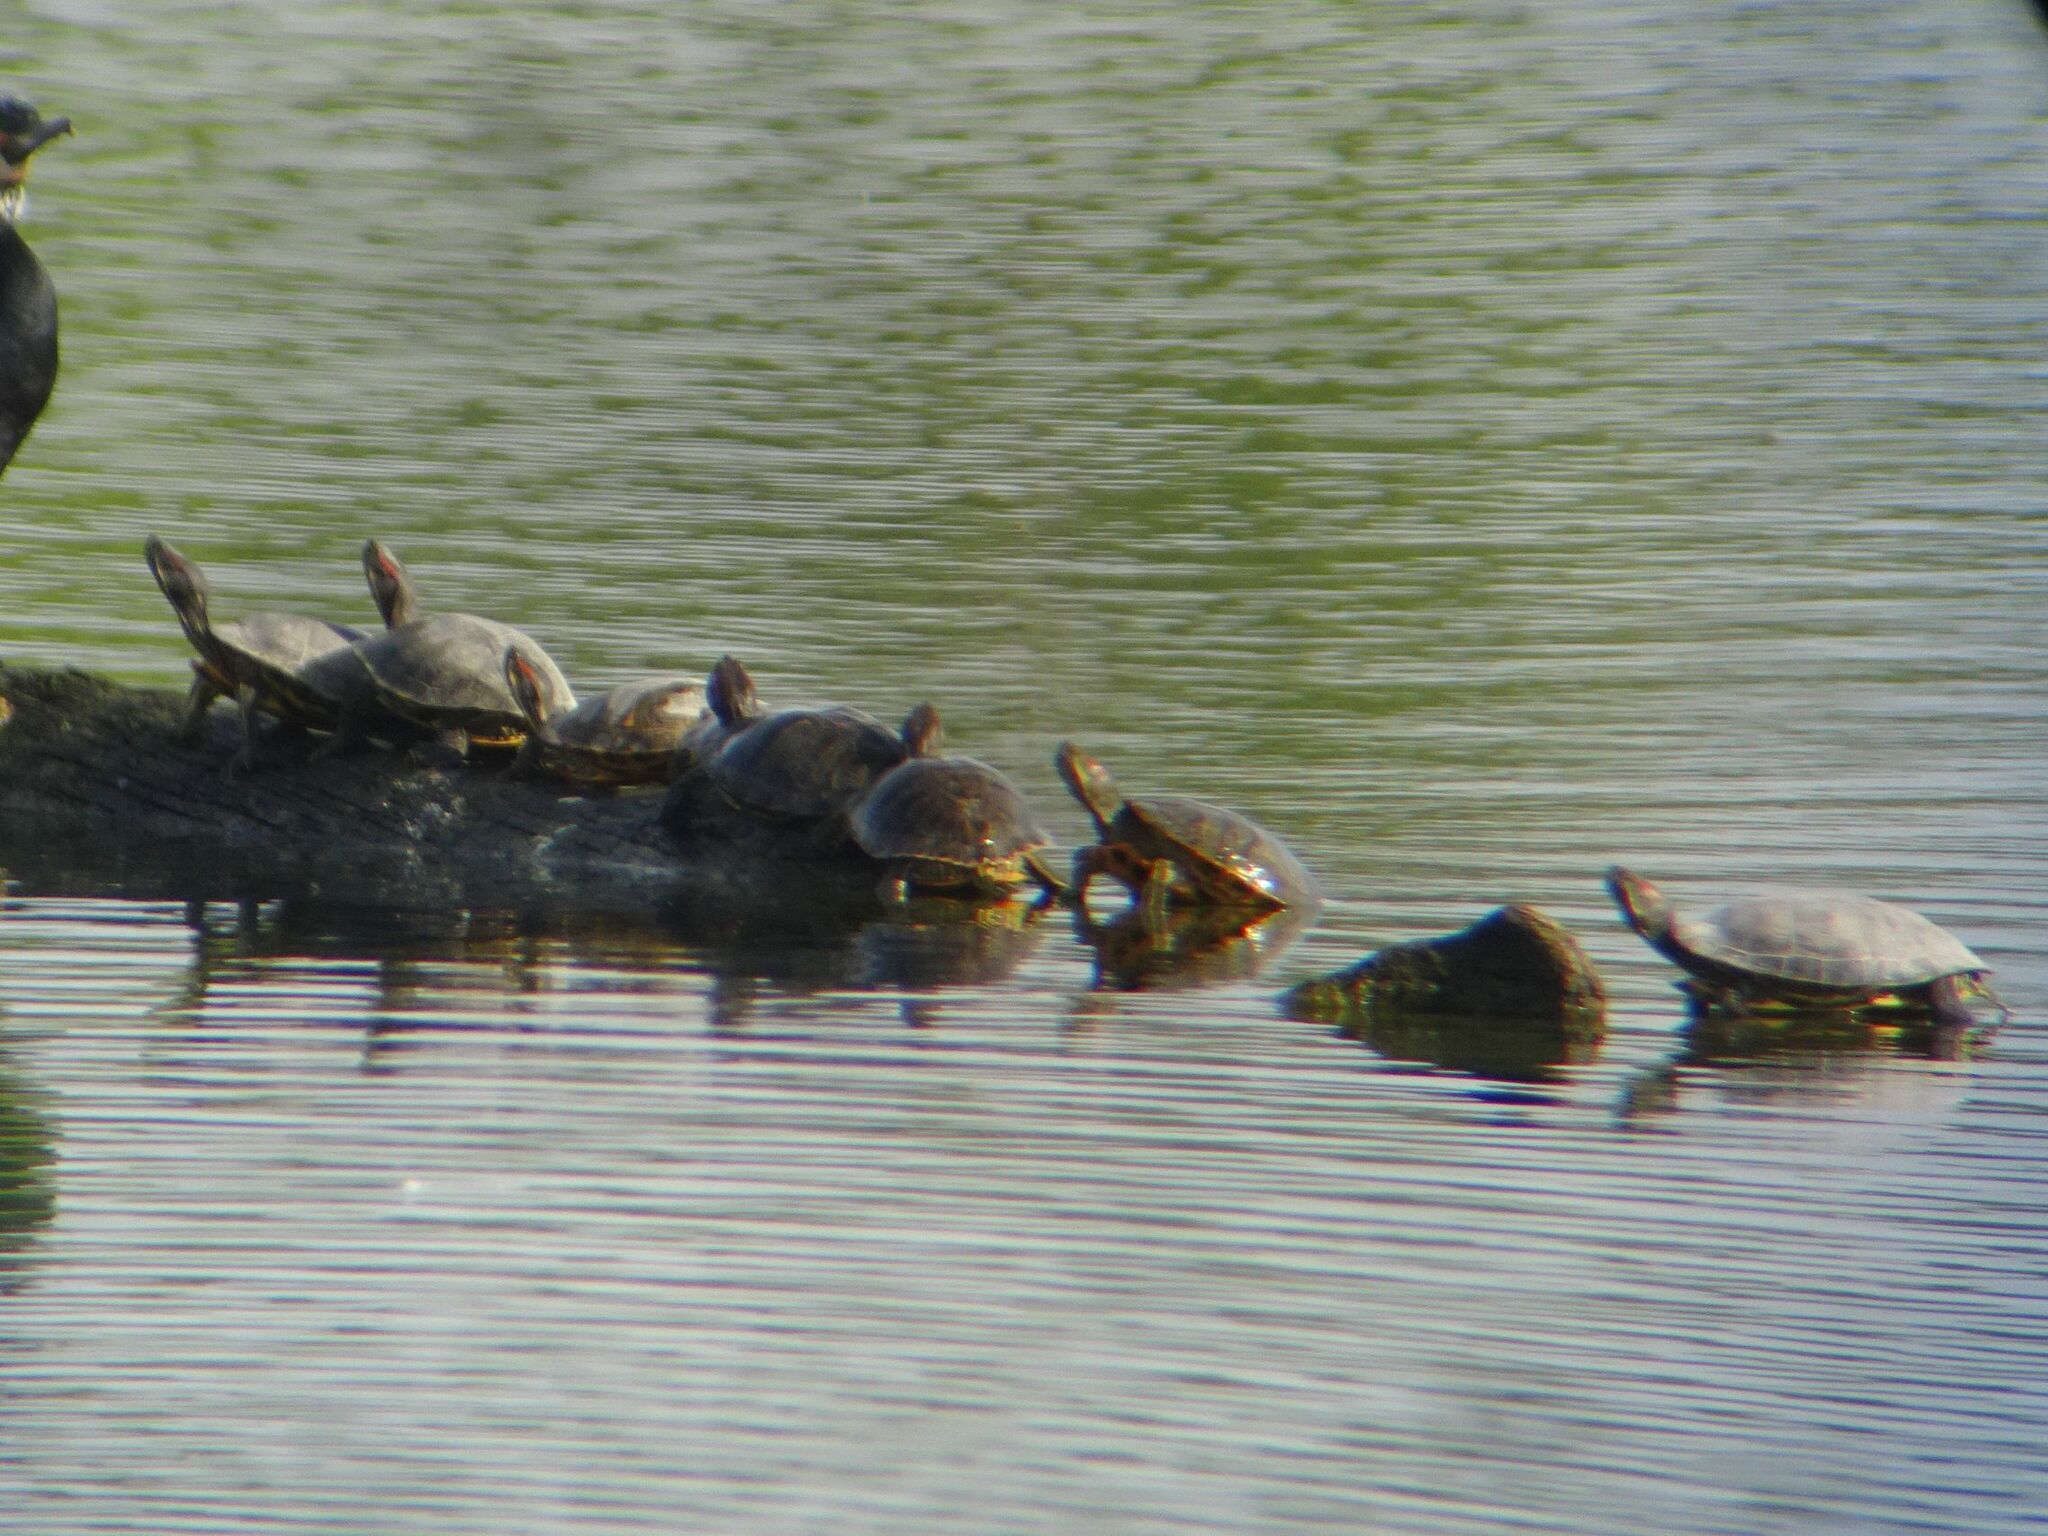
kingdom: Animalia
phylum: Chordata
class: Testudines
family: Emydidae
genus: Trachemys
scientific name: Trachemys scripta
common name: Slider
